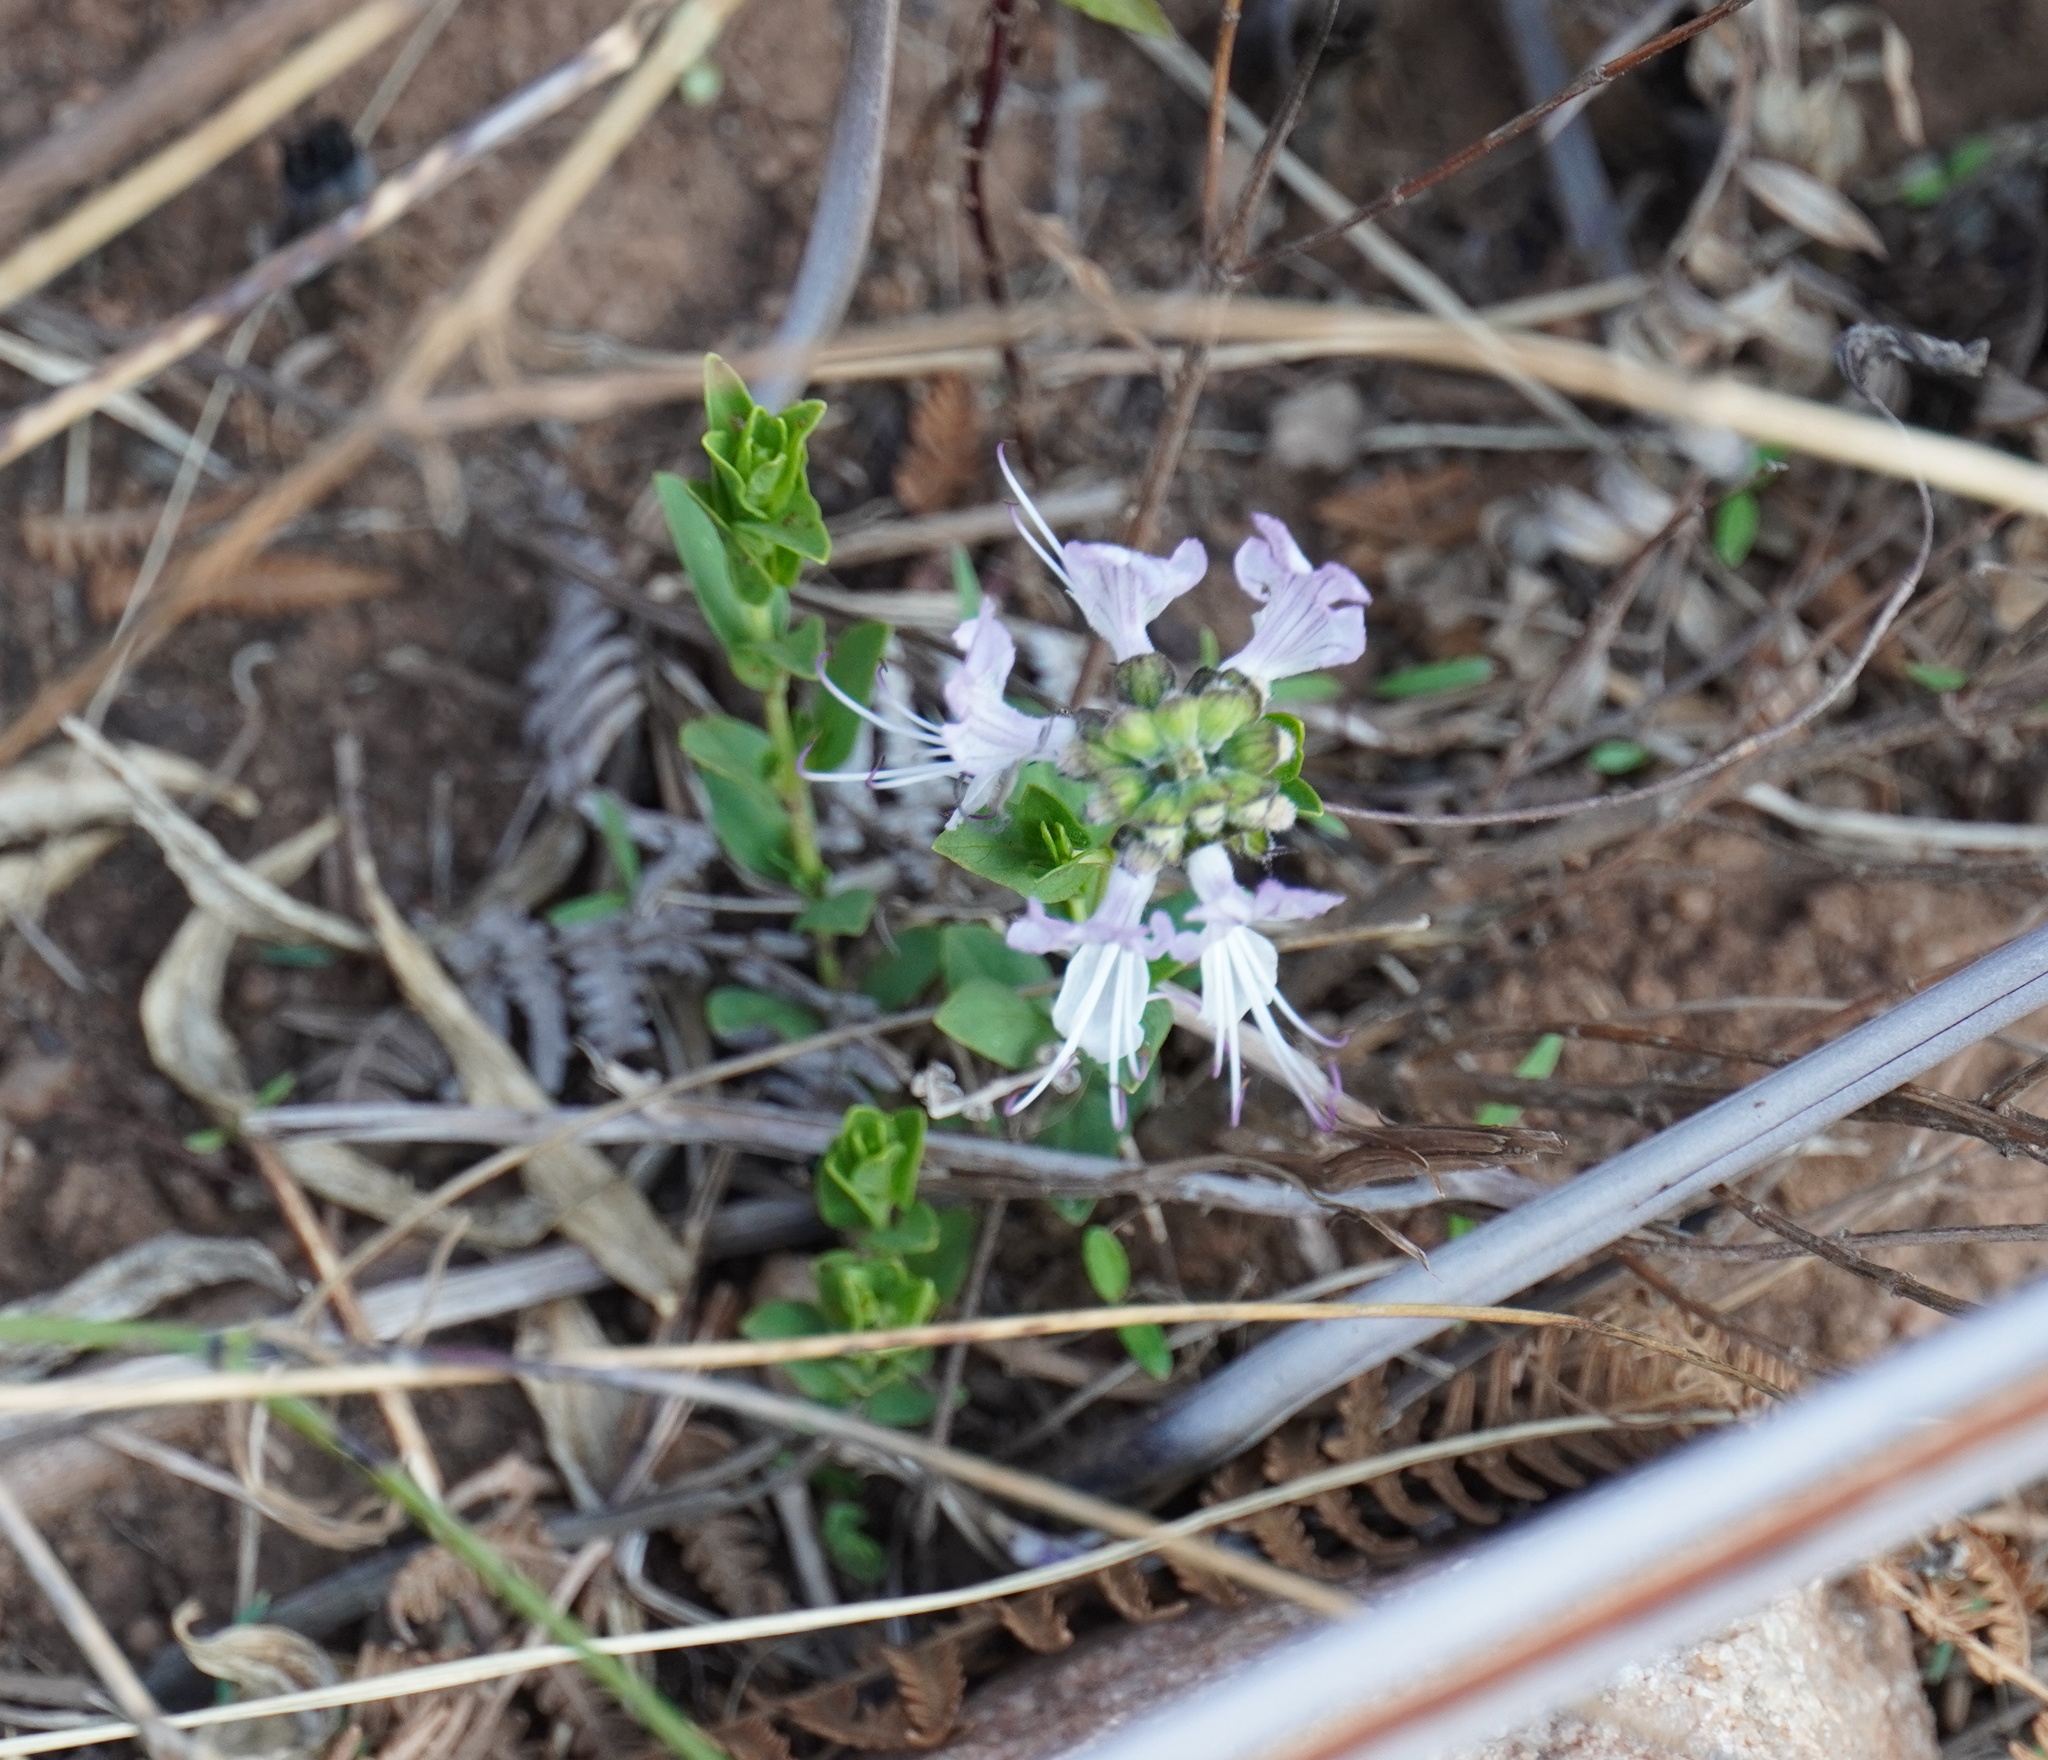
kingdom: Plantae
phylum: Tracheophyta
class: Magnoliopsida
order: Lamiales
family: Lamiaceae
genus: Ocimum
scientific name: Ocimum obovatum
